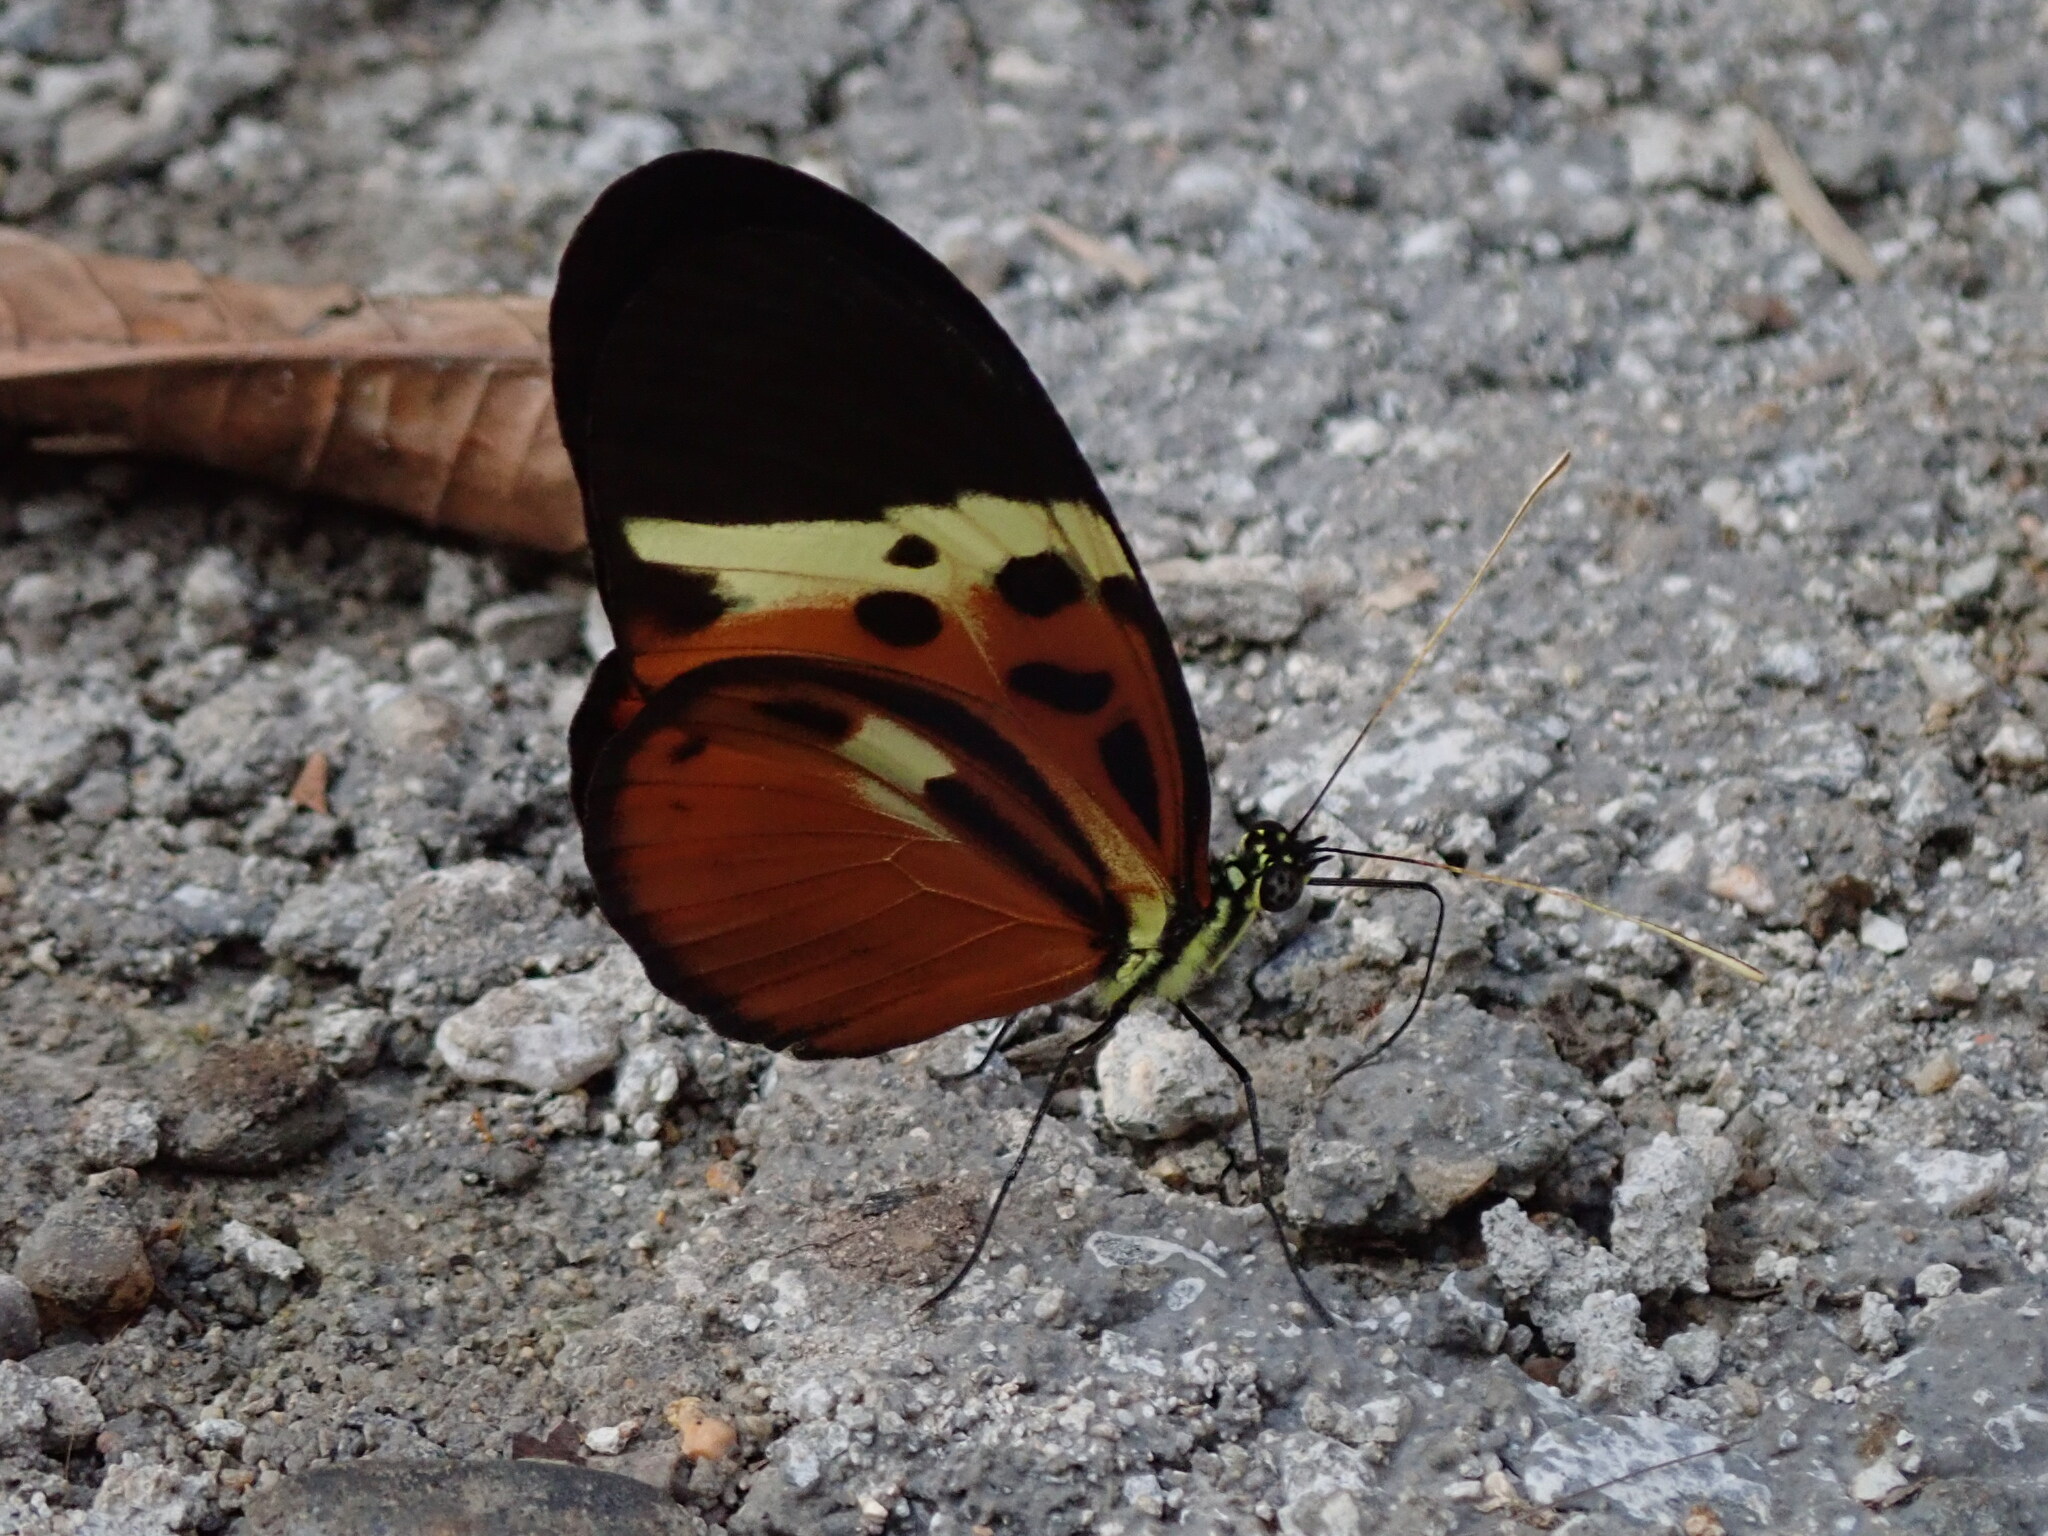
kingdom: Animalia
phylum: Arthropoda
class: Insecta
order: Lepidoptera
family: Nymphalidae
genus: Heliconius
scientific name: Heliconius numatus
